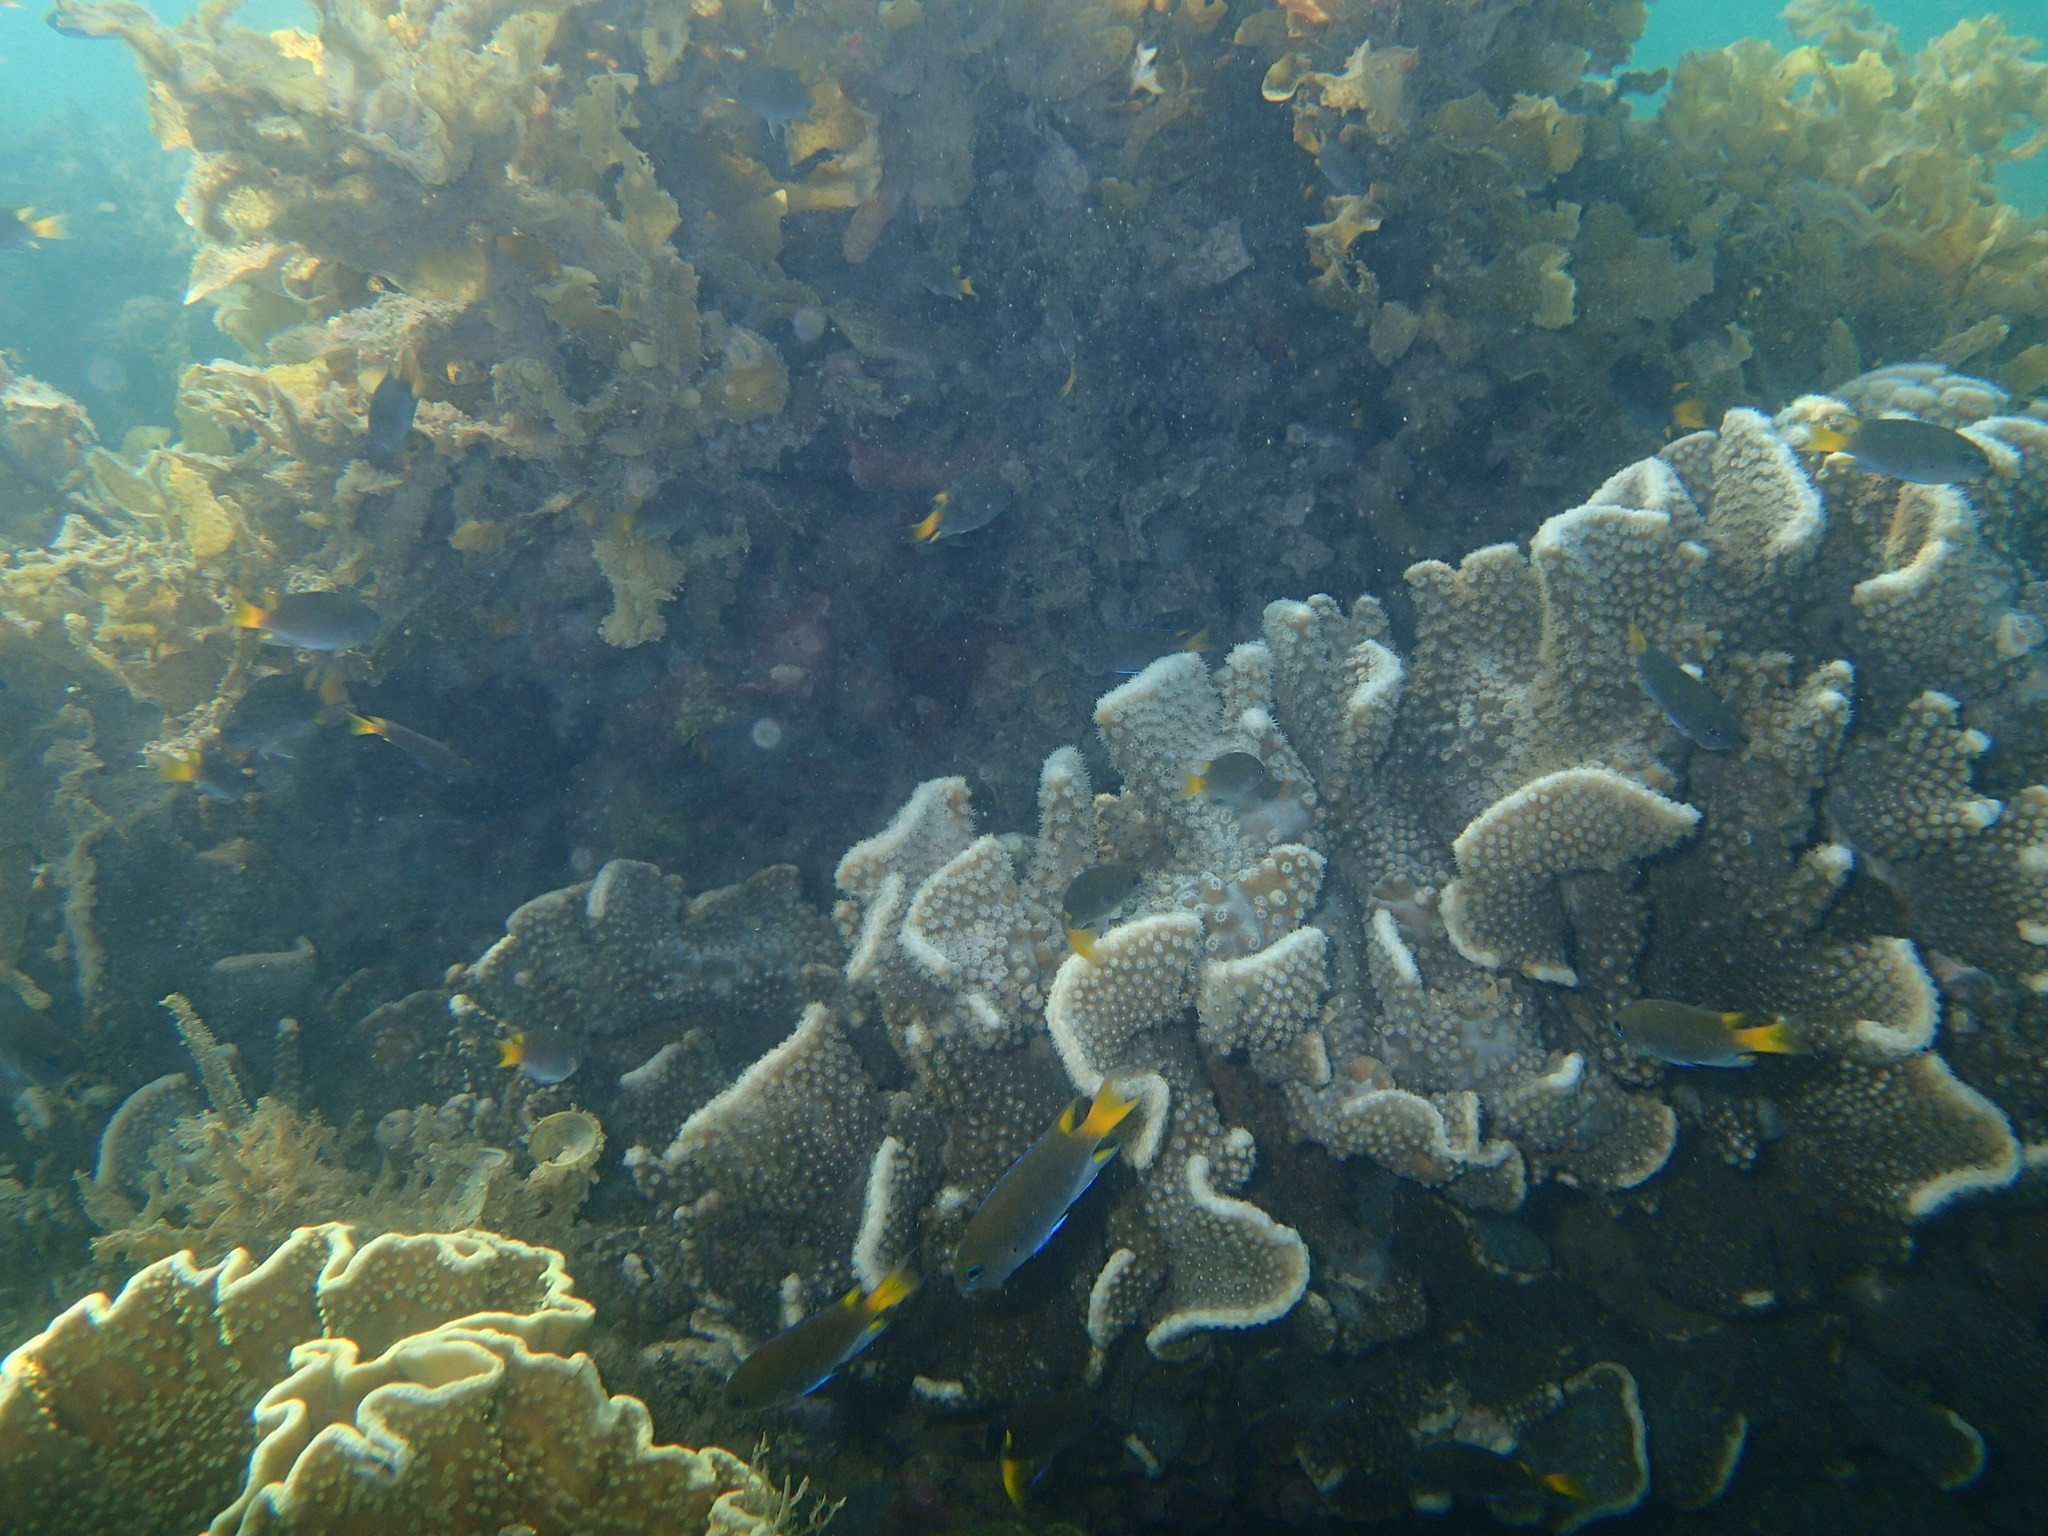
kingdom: Animalia
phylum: Chordata
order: Perciformes
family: Pomacentridae
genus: Neopomacentrus
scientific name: Neopomacentrus bankieri
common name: Chinese damsel
